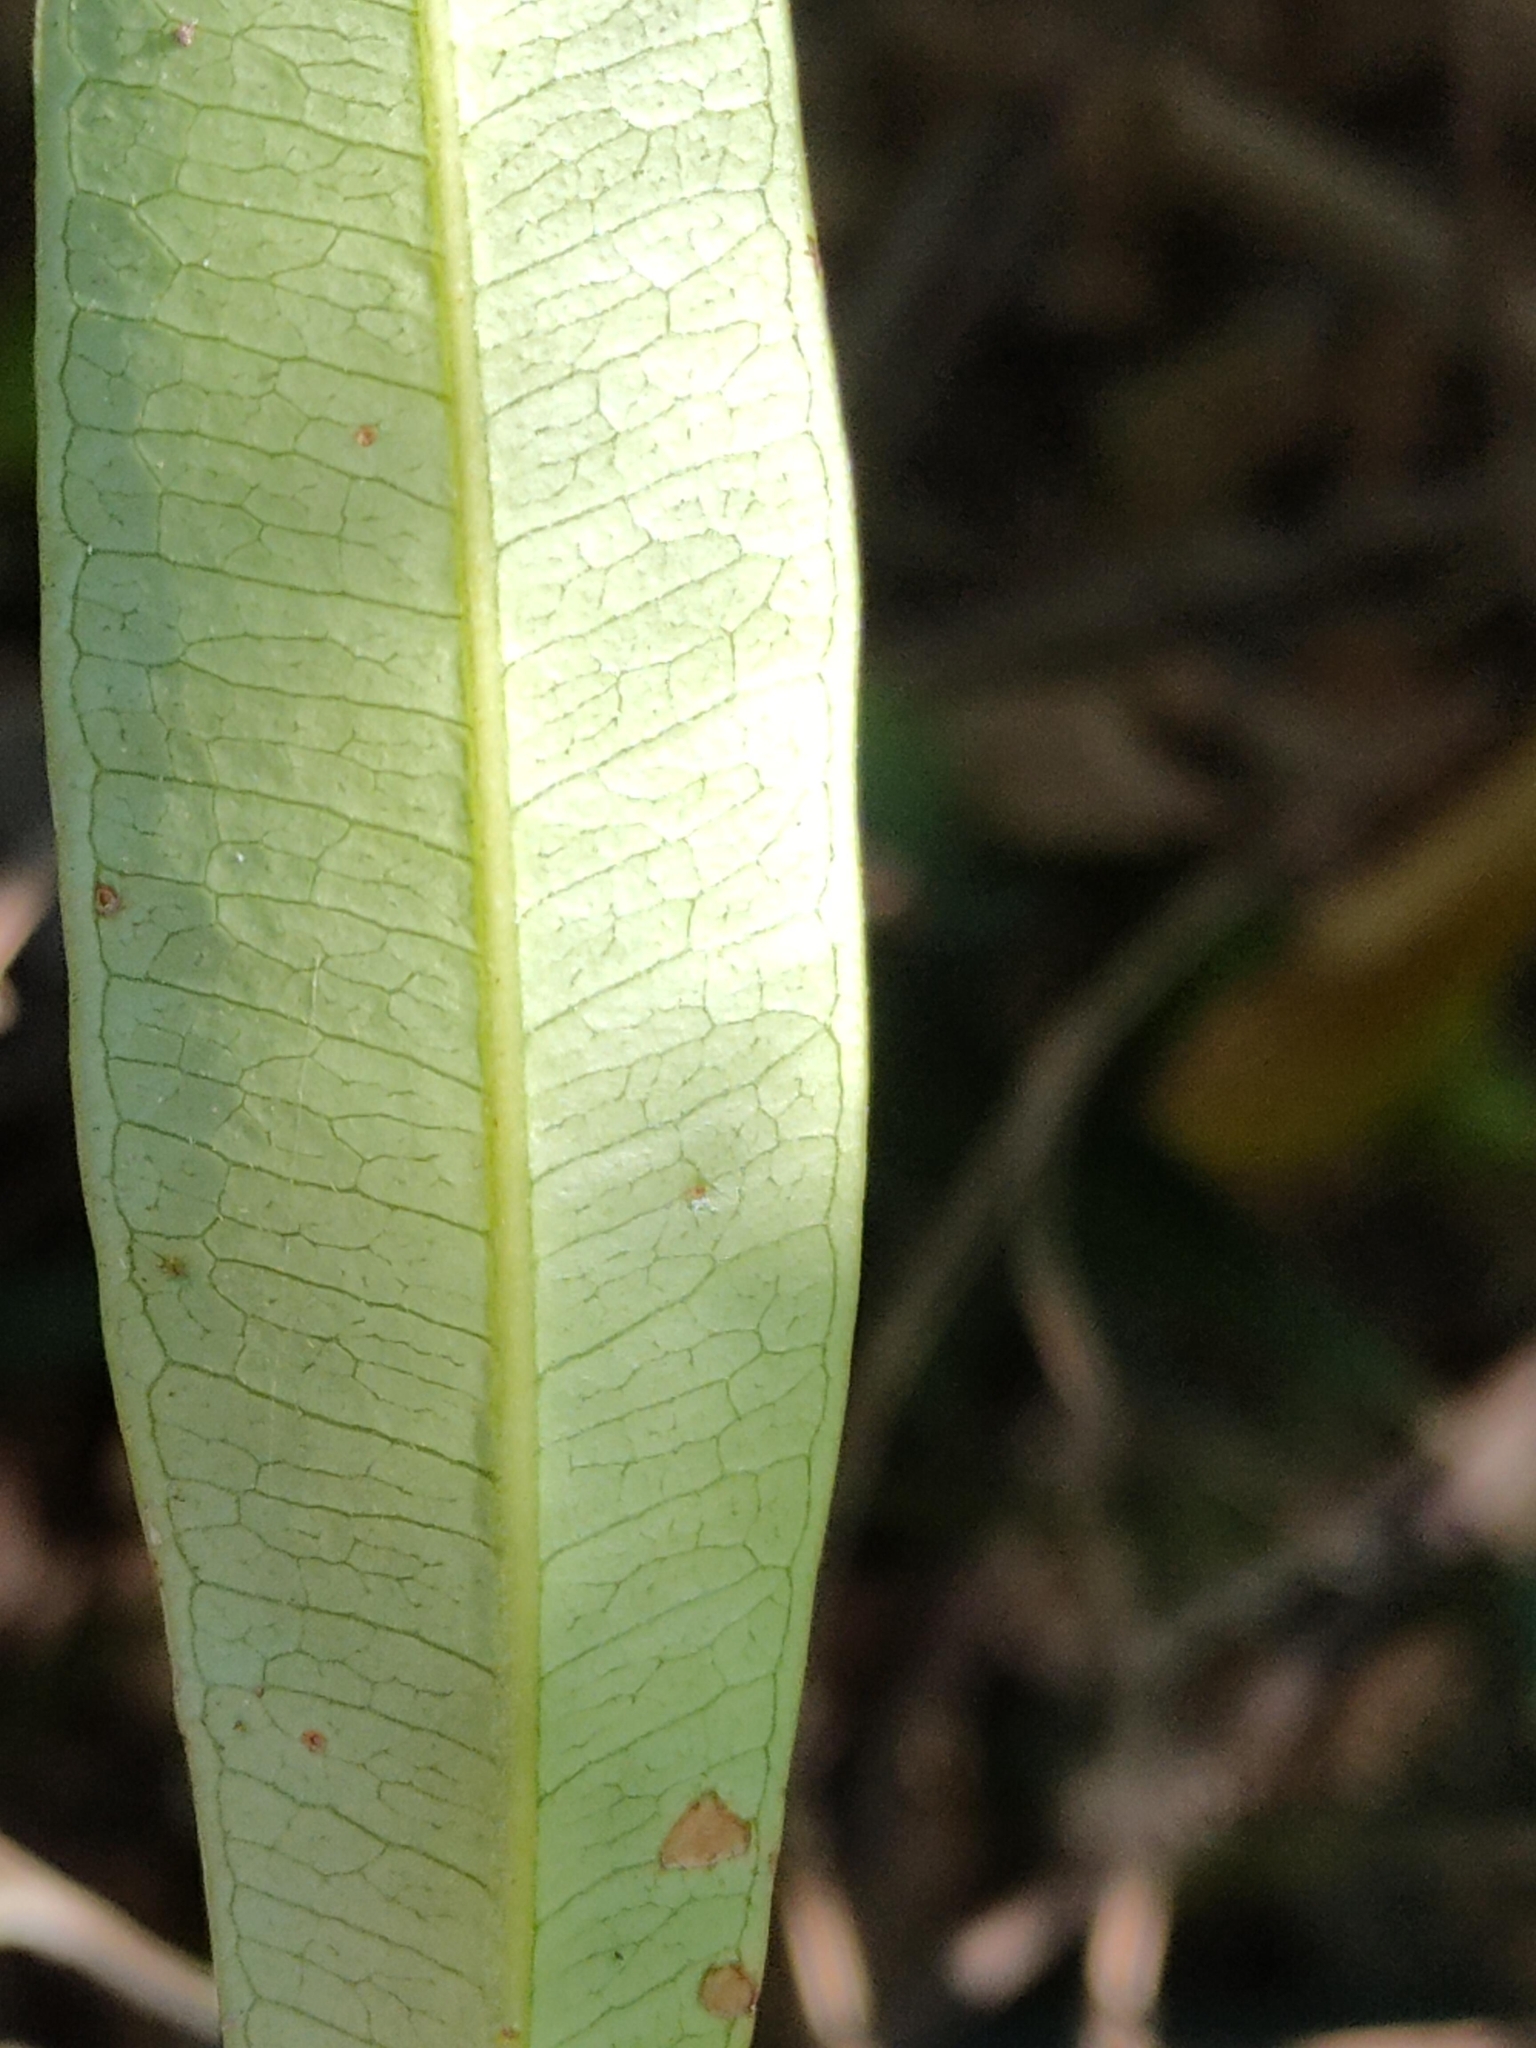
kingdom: Plantae
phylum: Tracheophyta
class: Magnoliopsida
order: Sapindales
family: Simaroubaceae
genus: Samadera
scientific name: Samadera bidwillii
